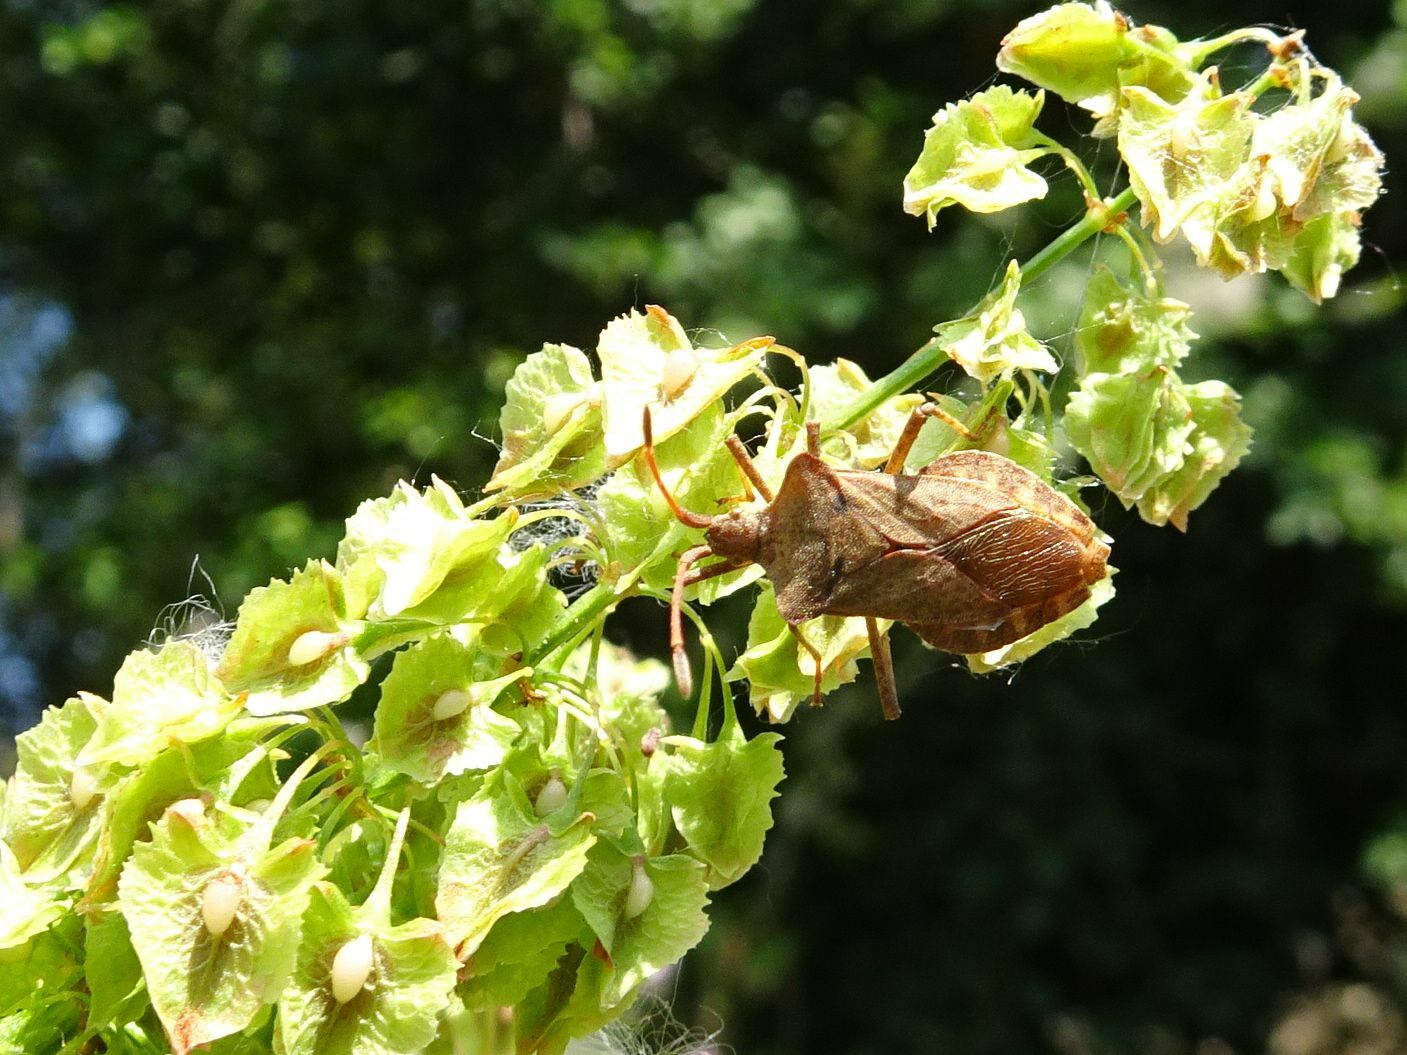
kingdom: Animalia
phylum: Arthropoda
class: Insecta
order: Hemiptera
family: Coreidae
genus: Coreus
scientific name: Coreus marginatus
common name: Dock bug
